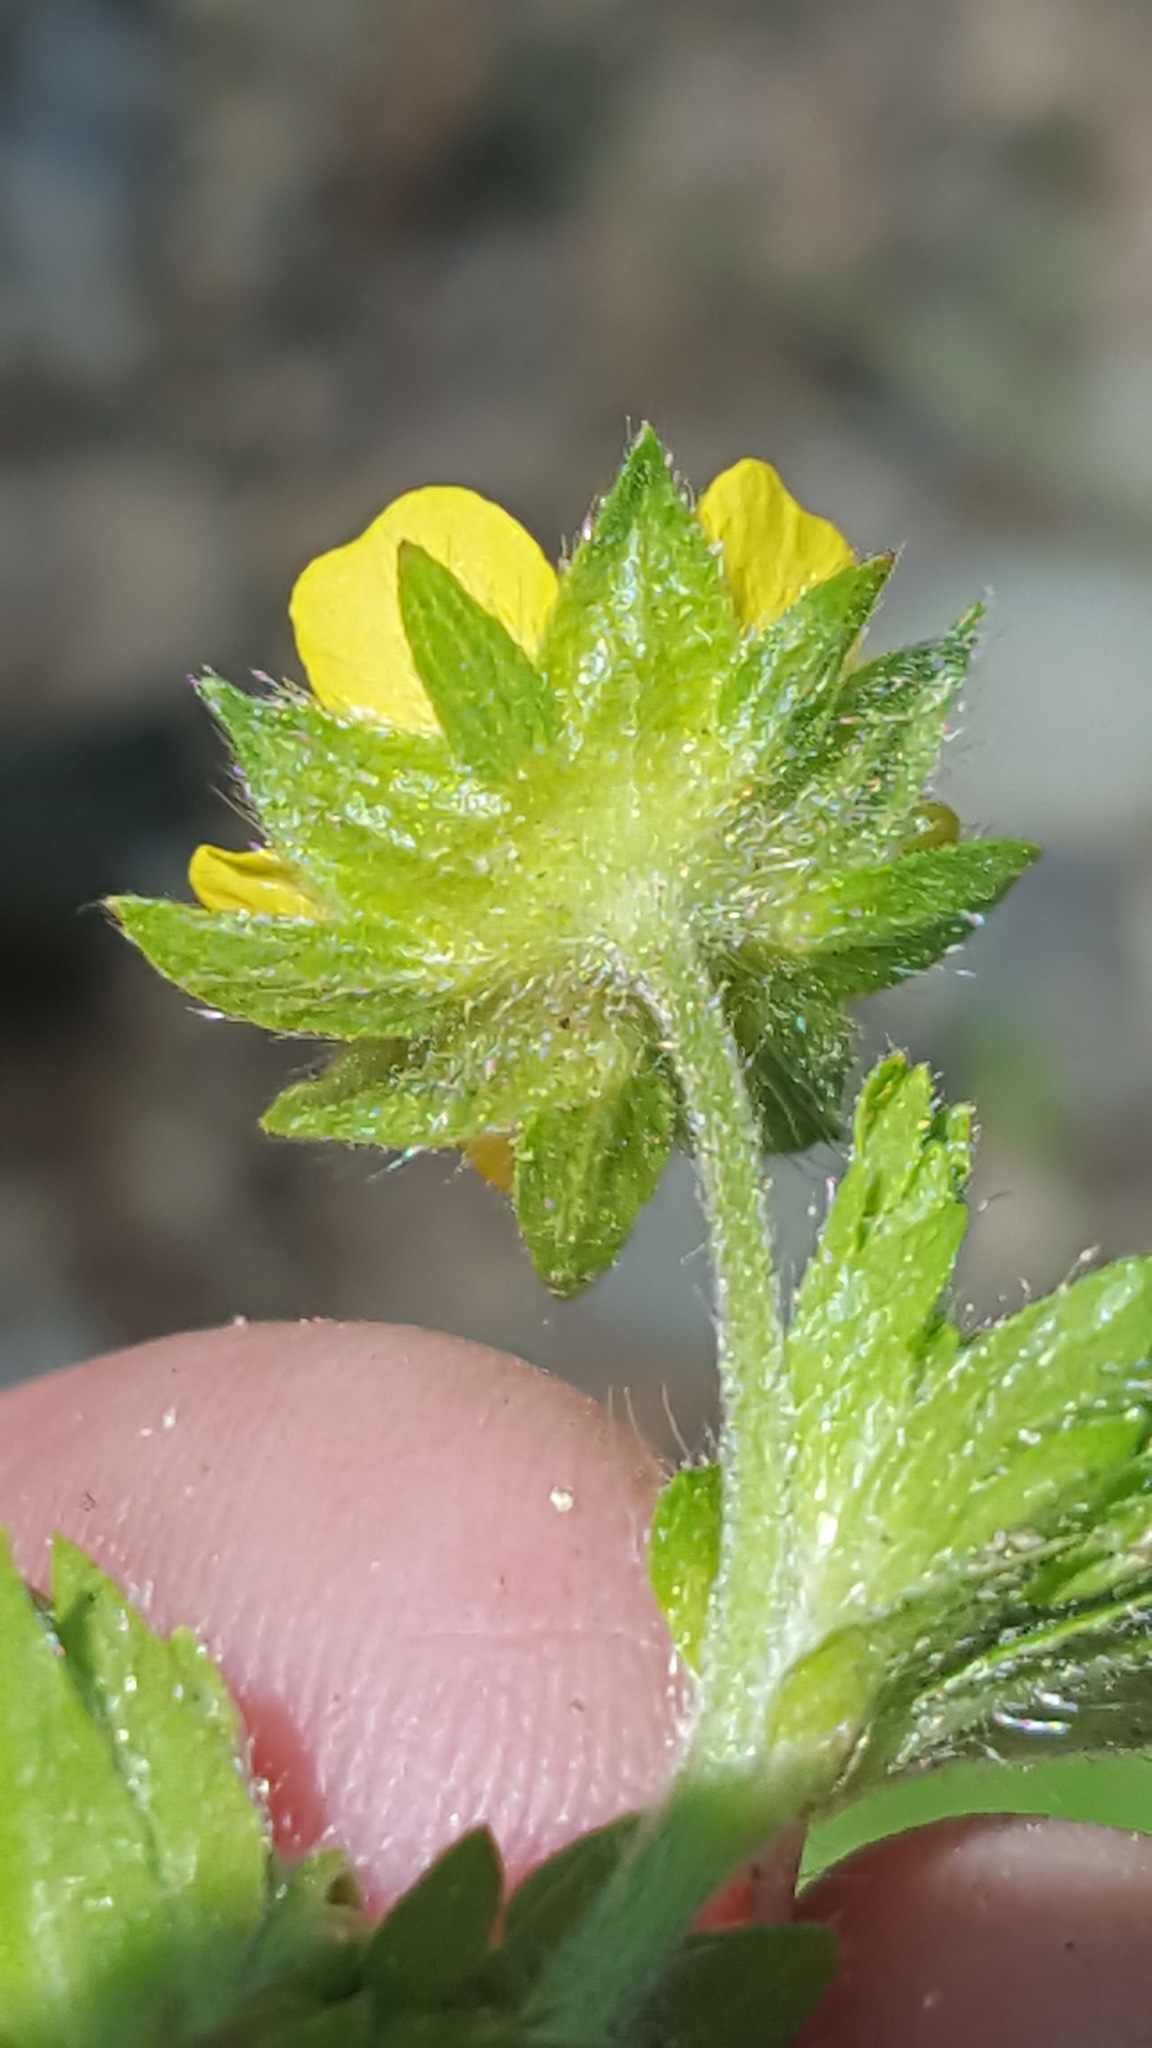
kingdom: Plantae
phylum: Tracheophyta
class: Magnoliopsida
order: Rosales
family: Rosaceae
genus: Potentilla
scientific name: Potentilla norvegica
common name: Ternate-leaved cinquefoil
